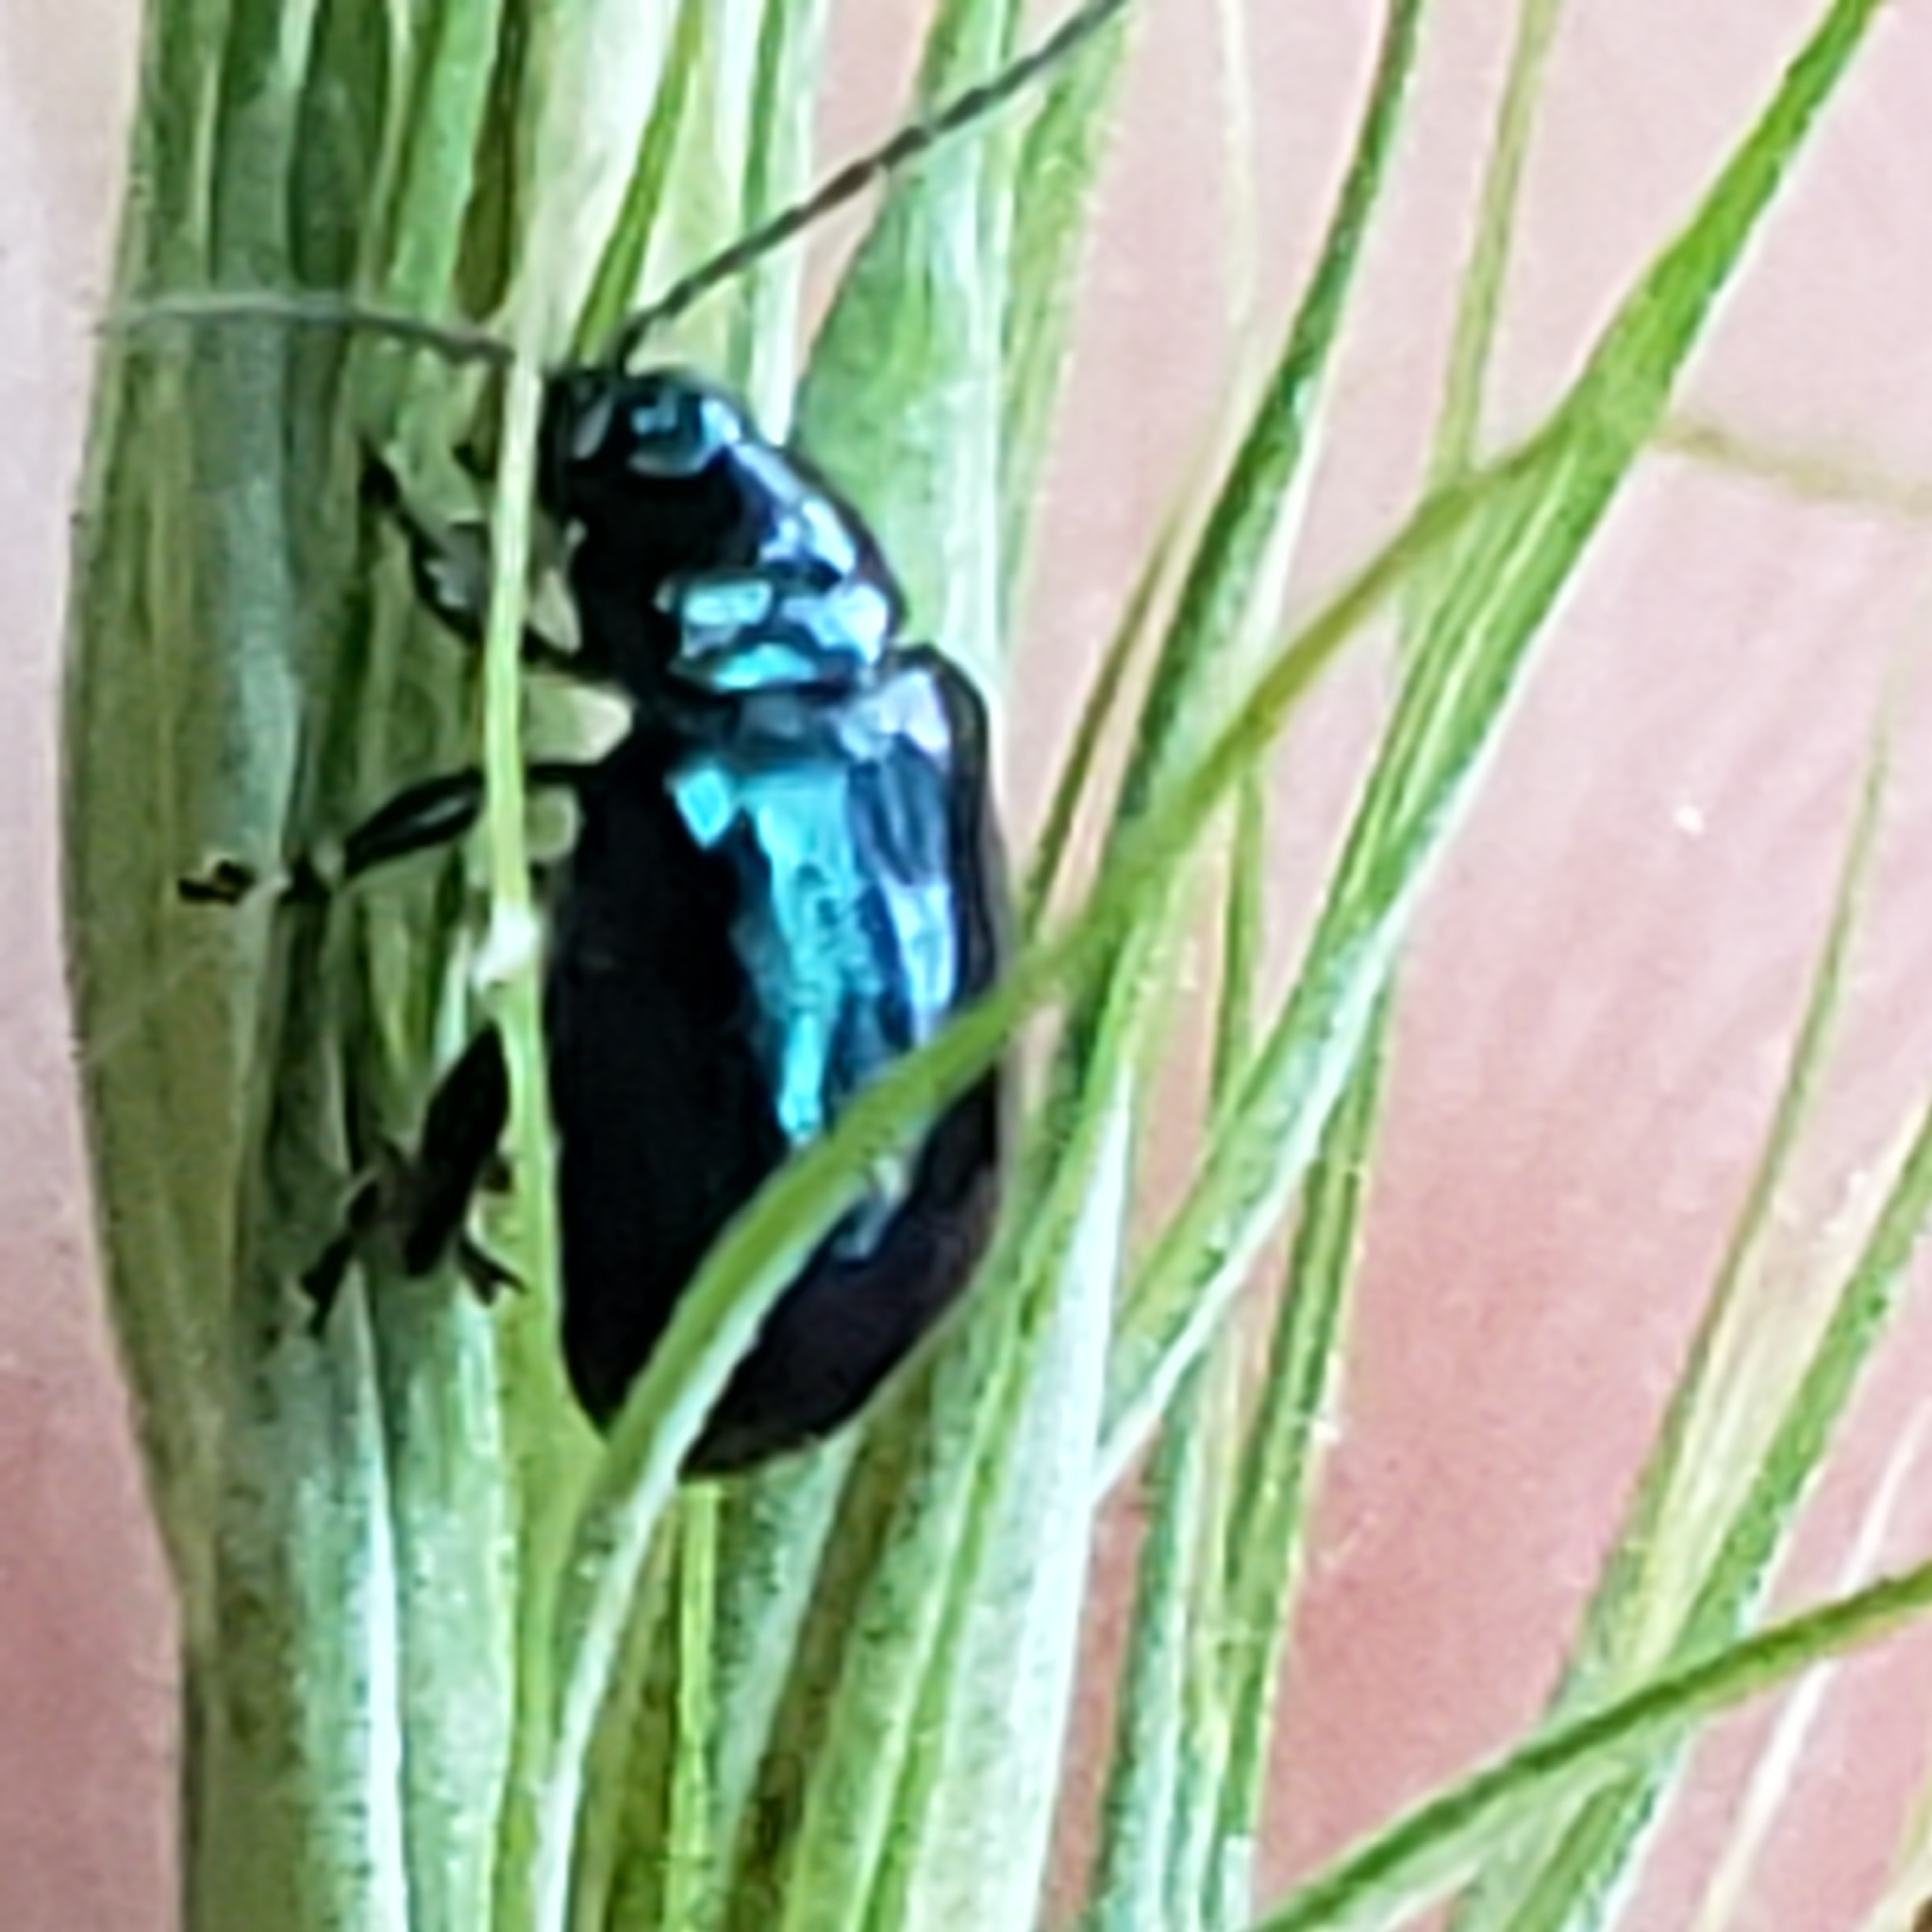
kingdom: Animalia
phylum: Arthropoda
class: Insecta
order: Coleoptera
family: Chrysomelidae
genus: Altica
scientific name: Altica chalybea
